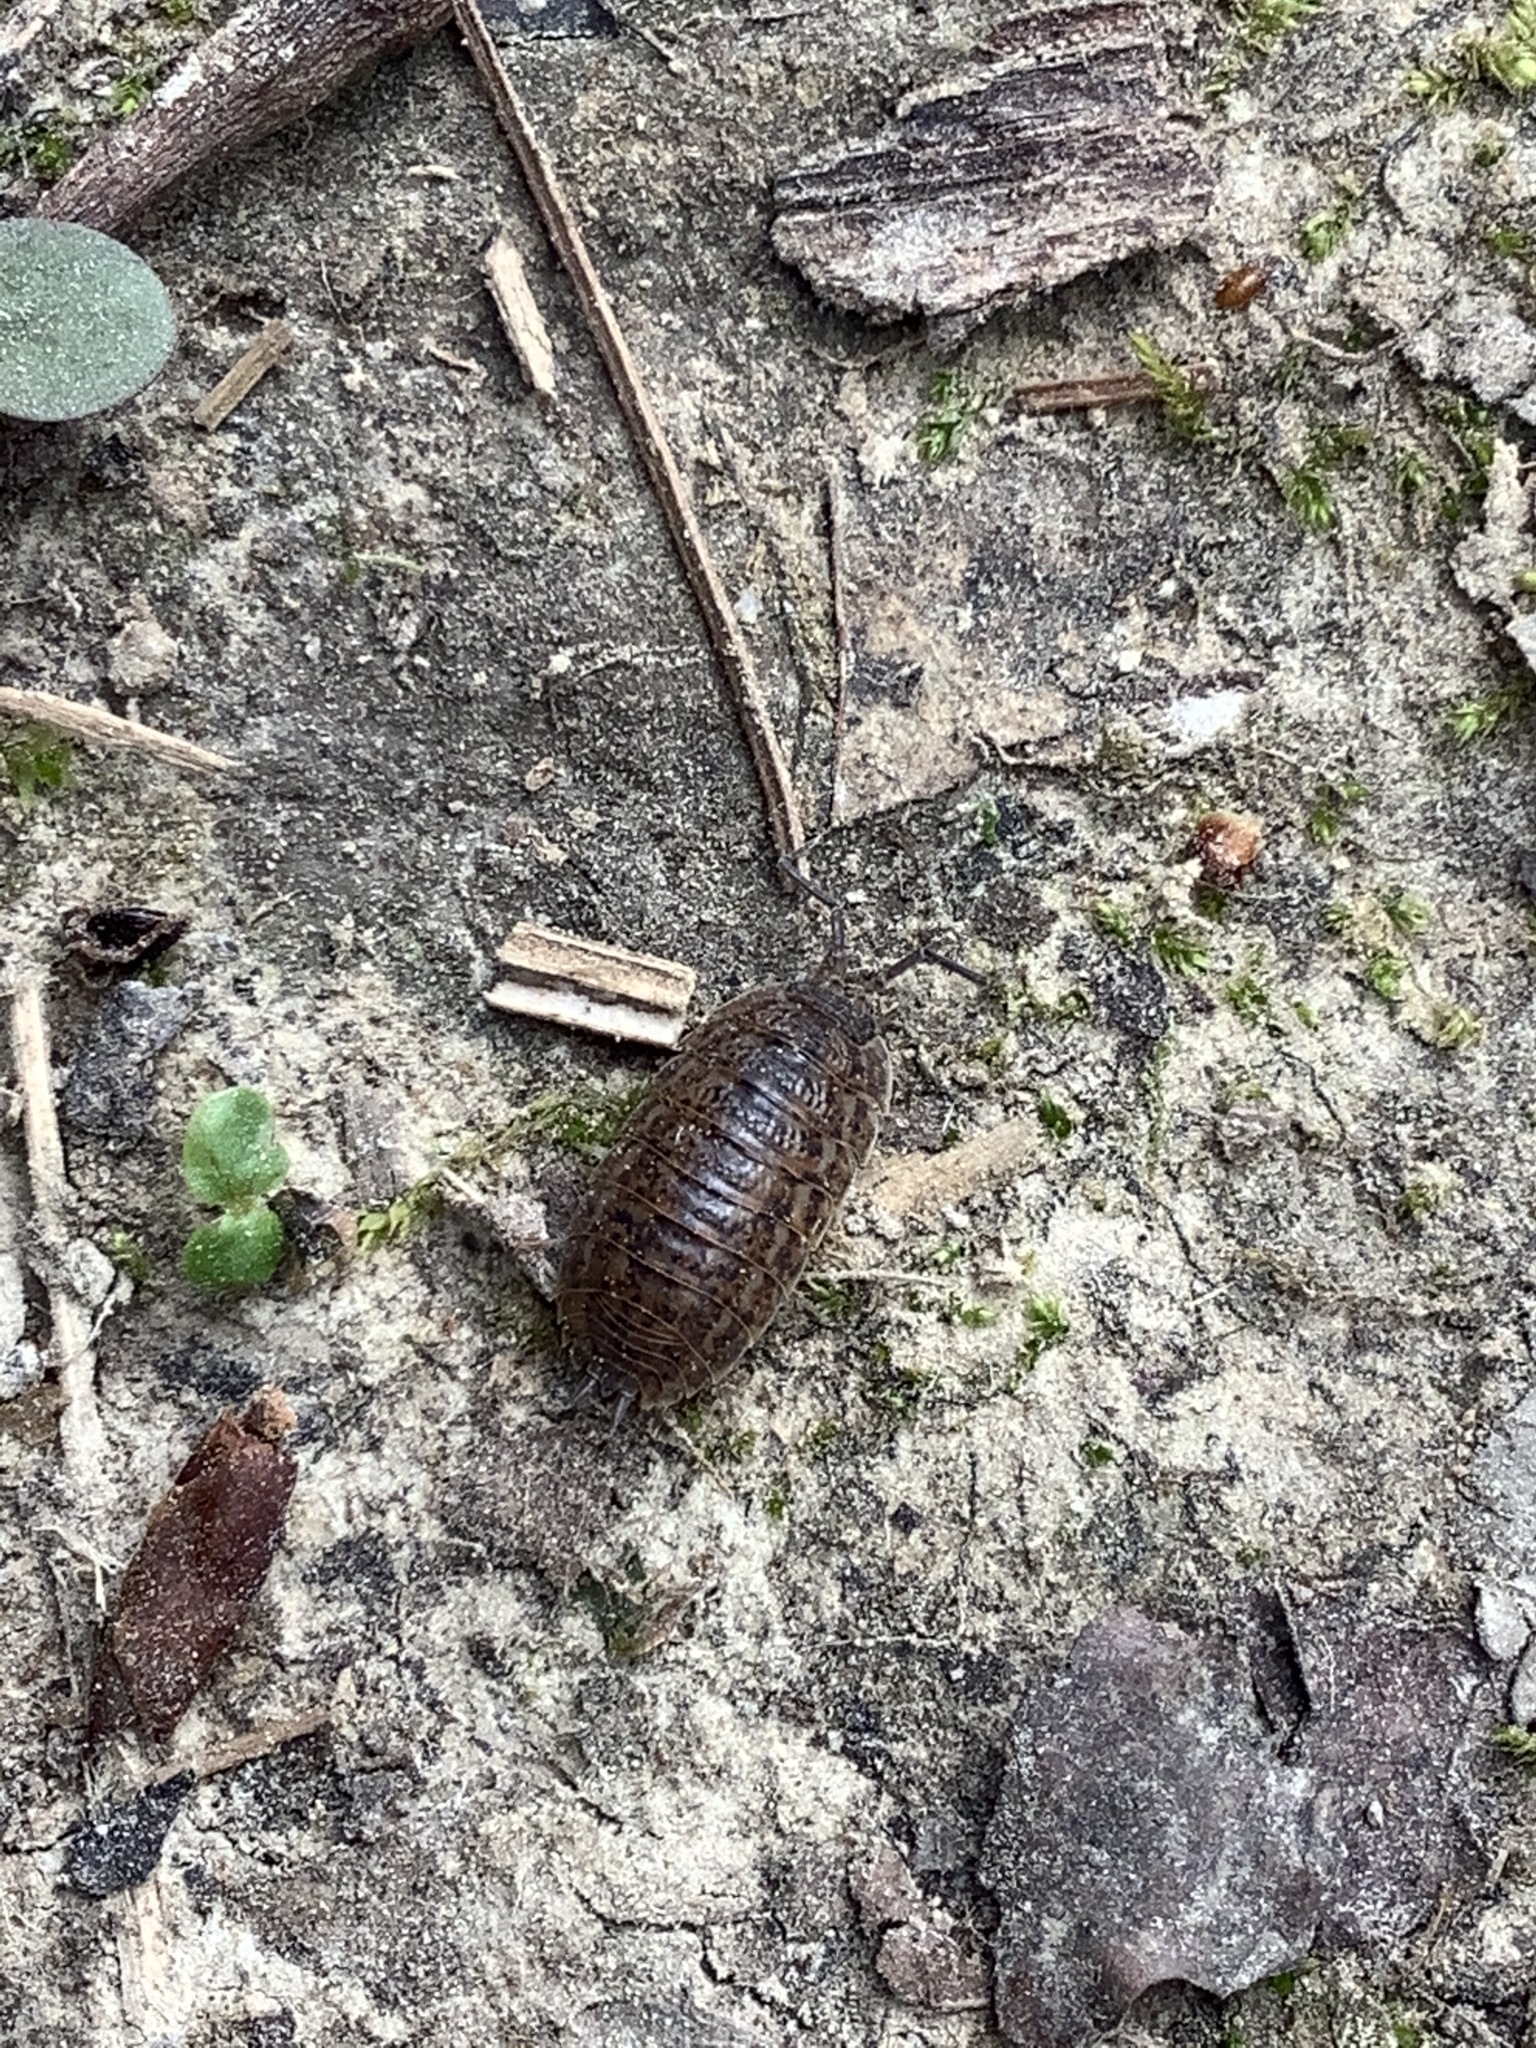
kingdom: Animalia
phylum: Arthropoda
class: Malacostraca
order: Isopoda
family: Trachelipodidae
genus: Trachelipus
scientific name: Trachelipus rathkii
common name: Isopod
